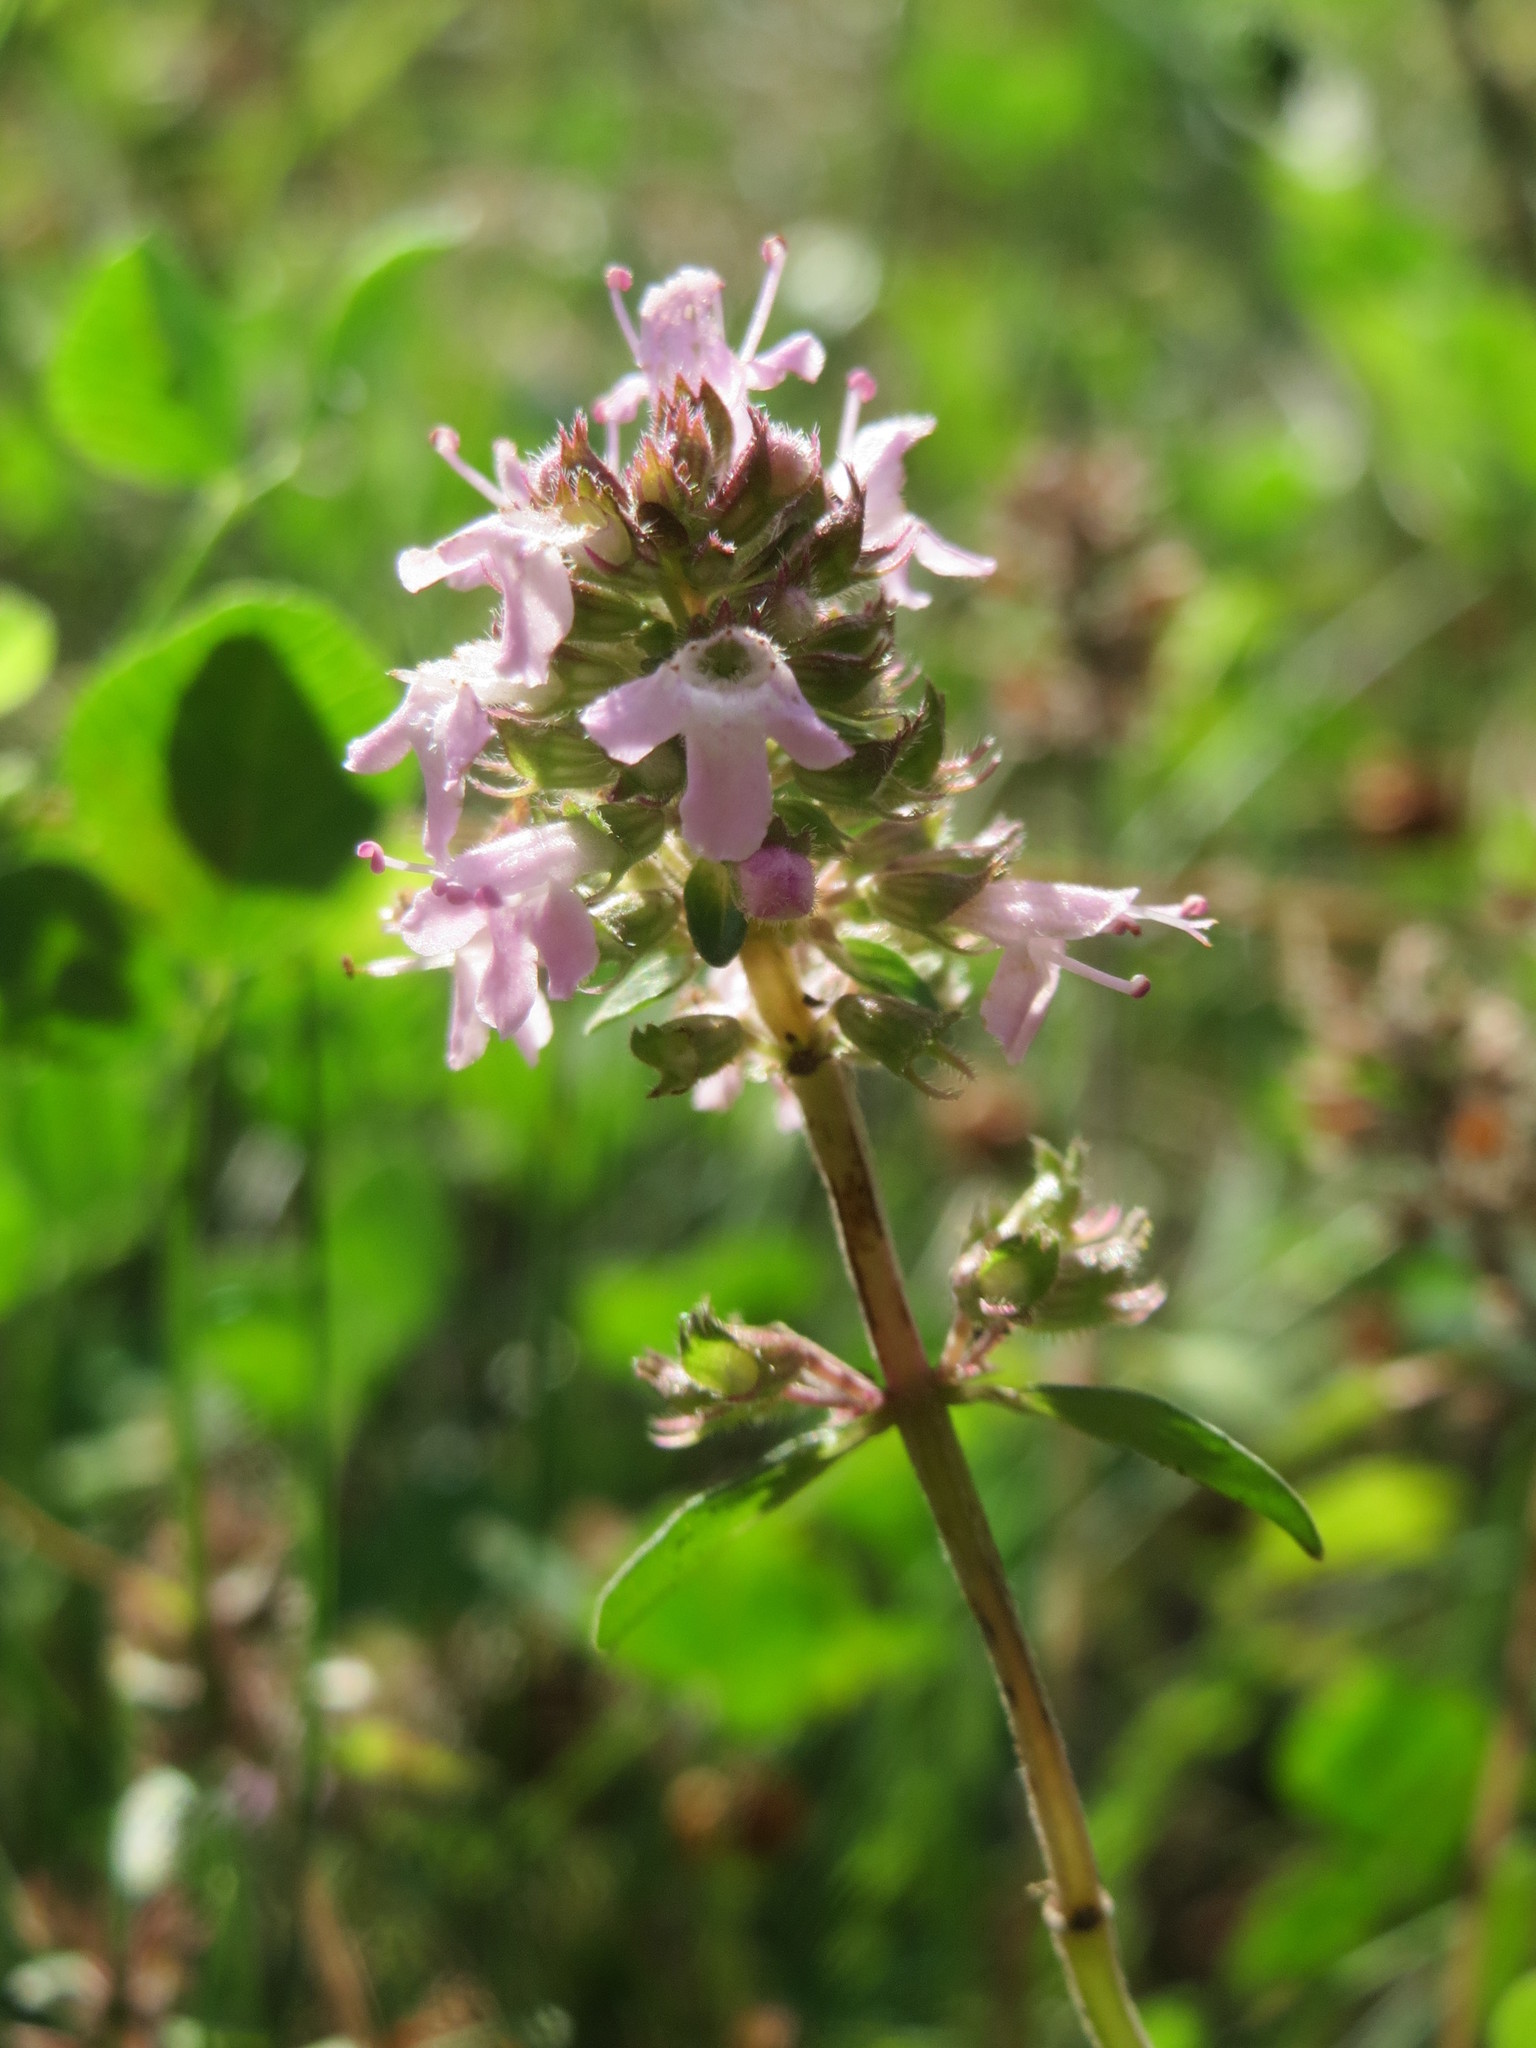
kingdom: Plantae
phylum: Tracheophyta
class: Magnoliopsida
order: Lamiales
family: Lamiaceae
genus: Thymus
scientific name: Thymus pulegioides
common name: Large thyme
